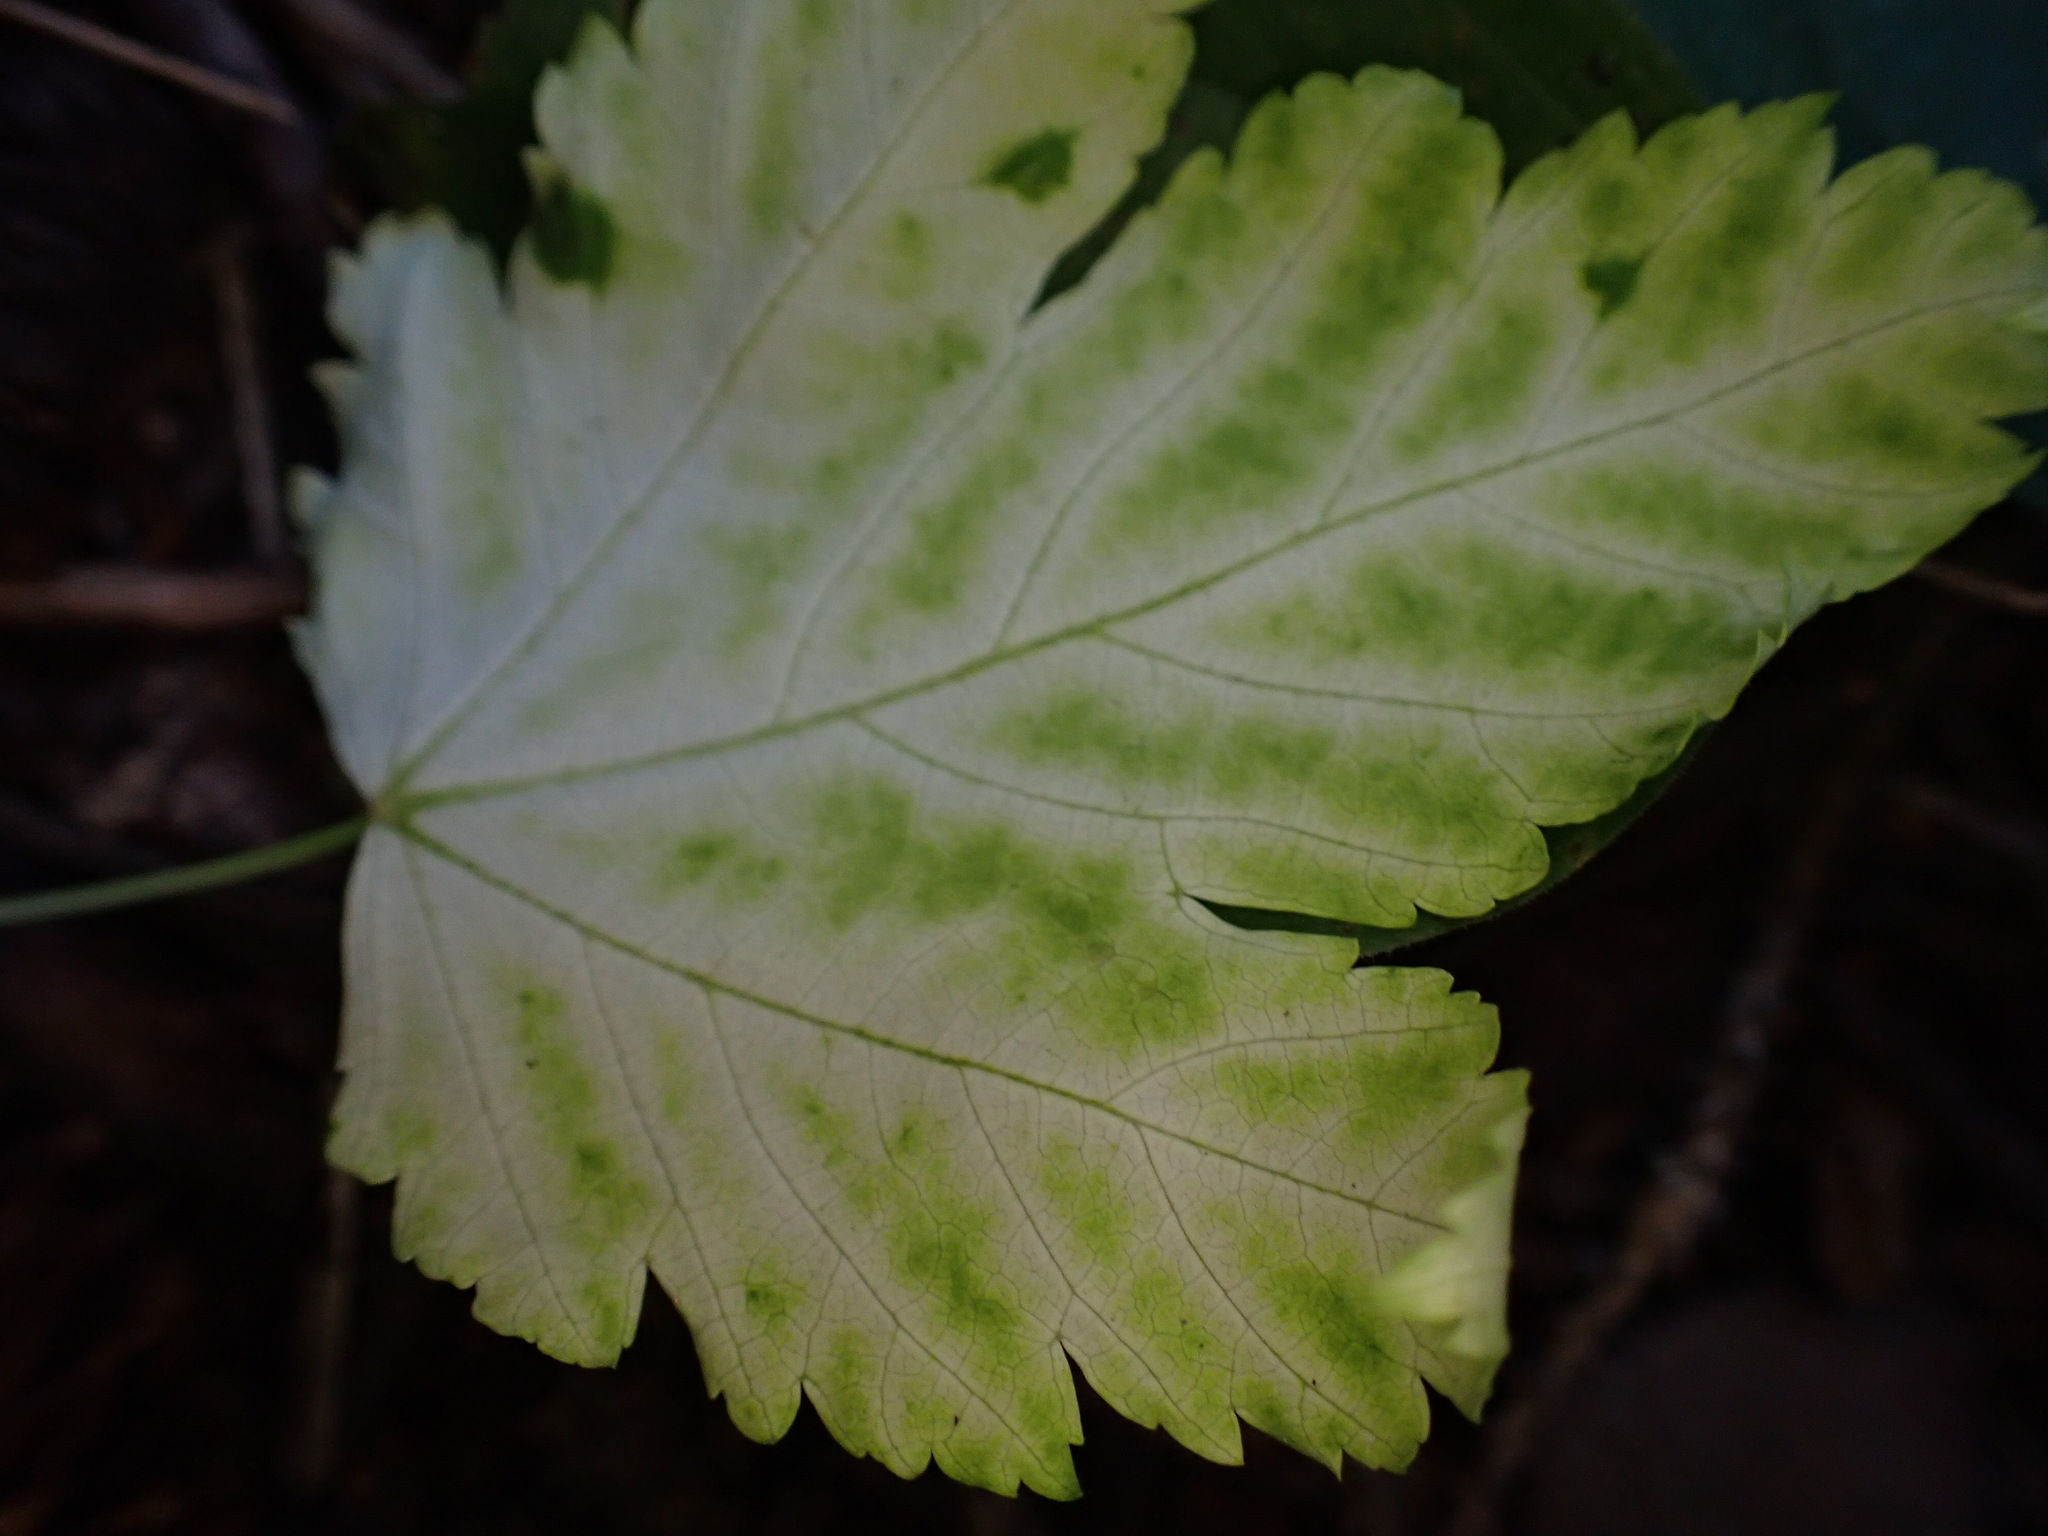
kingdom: Plantae
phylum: Tracheophyta
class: Magnoliopsida
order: Sapindales
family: Sapindaceae
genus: Acer
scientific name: Acer glabrum
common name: Rocky mountain maple
